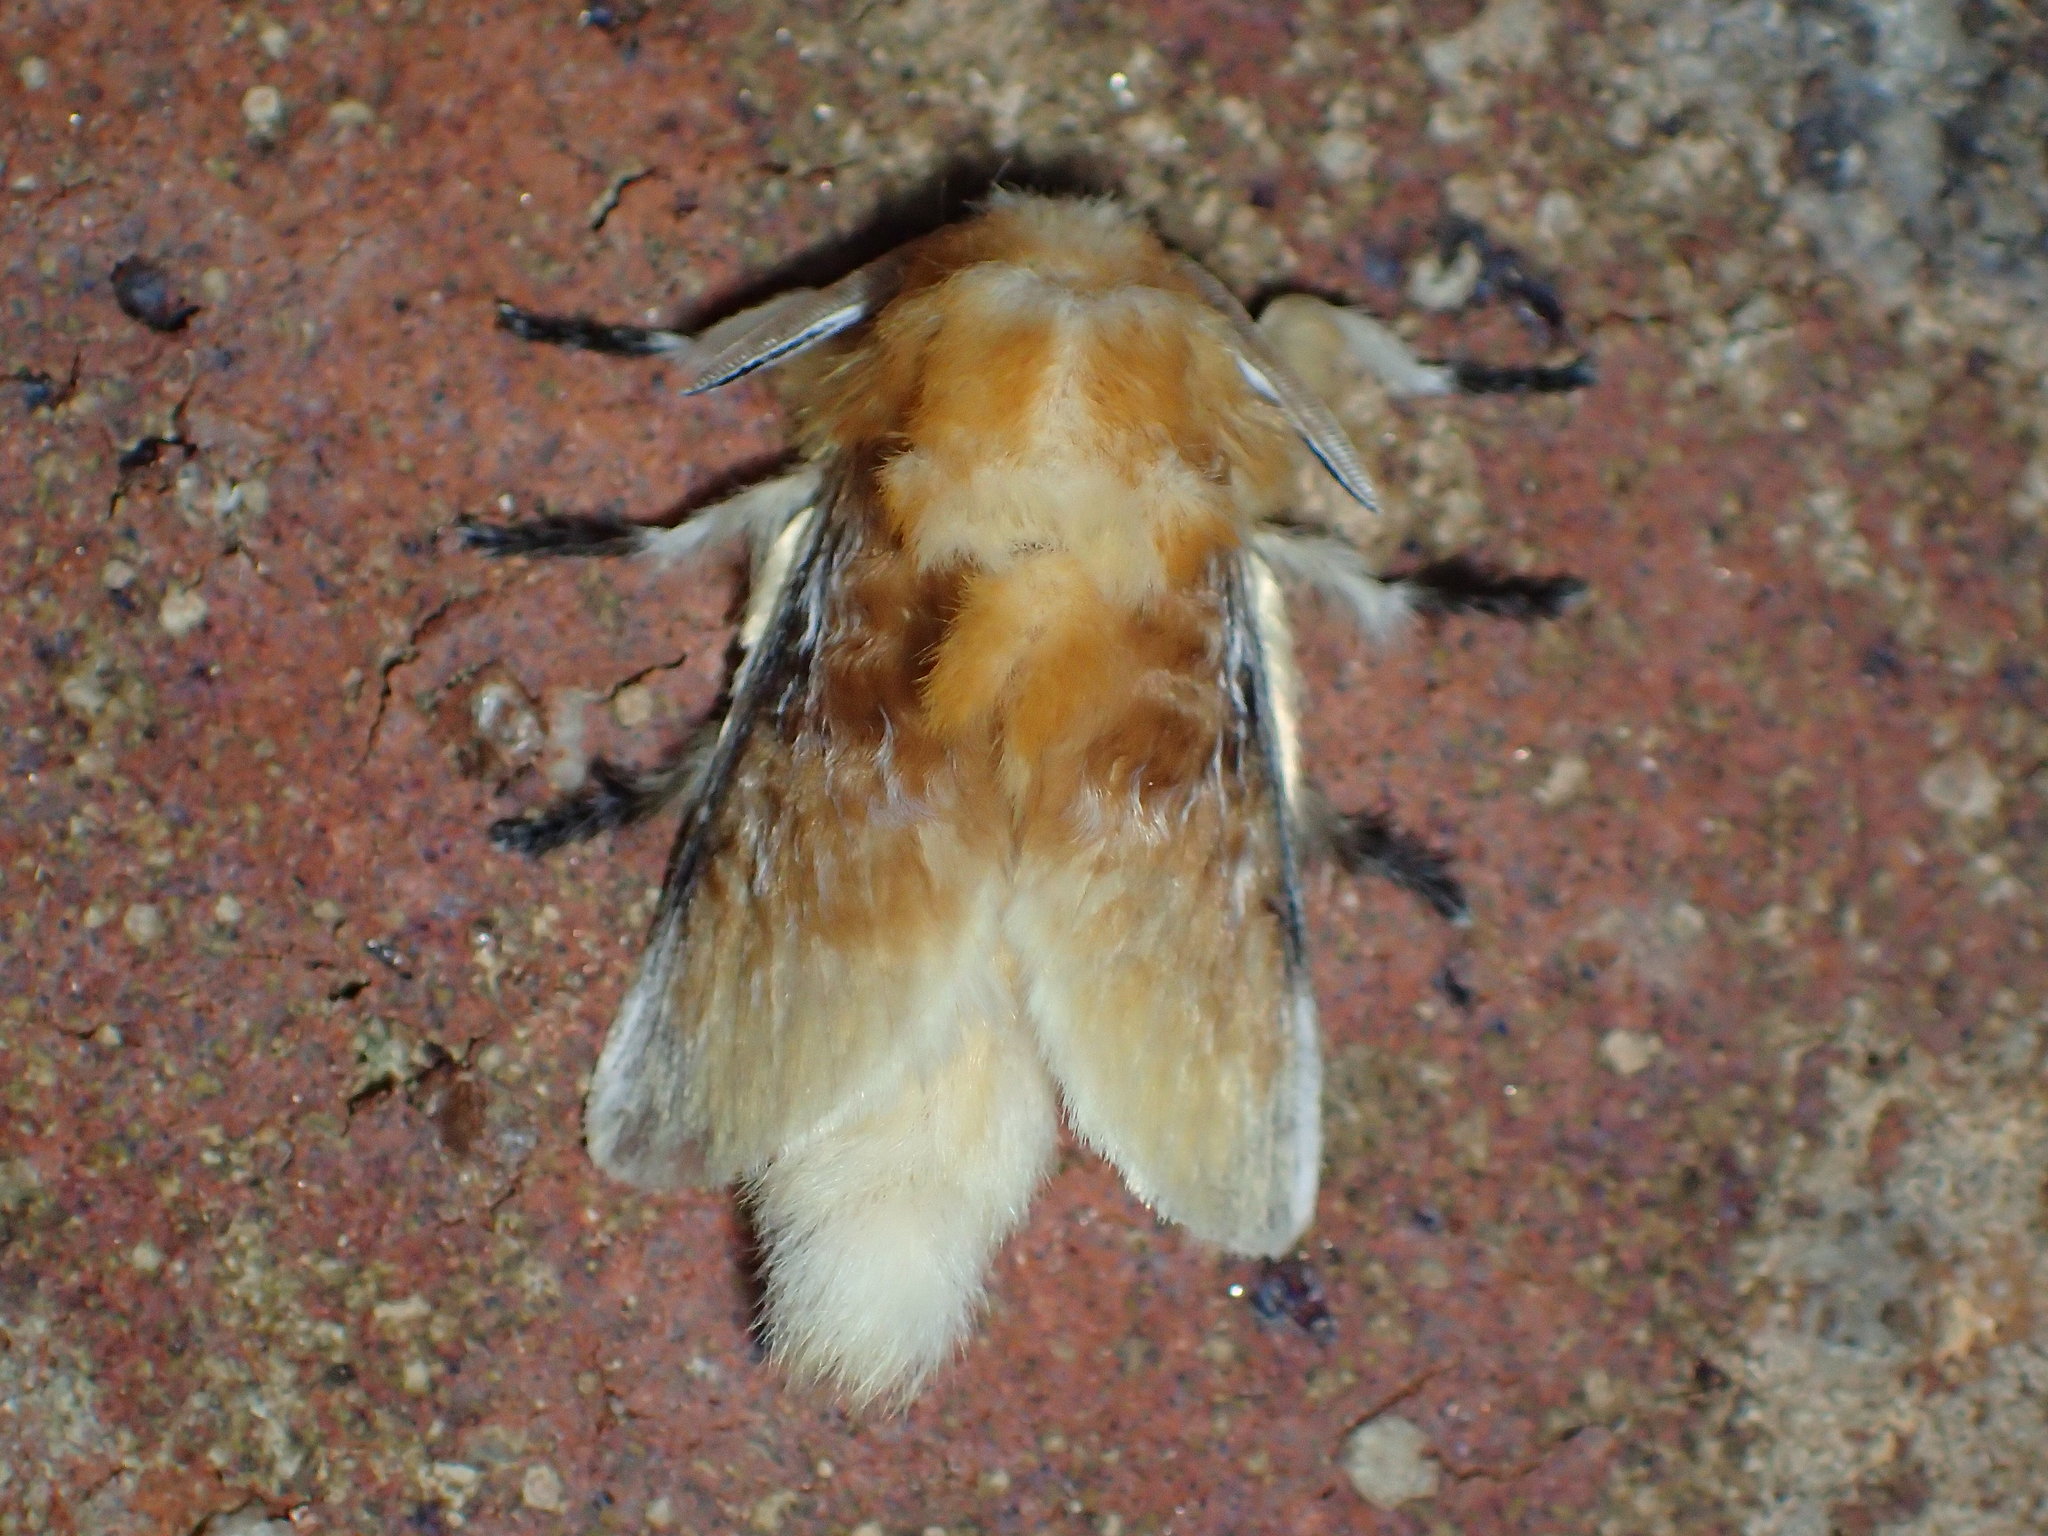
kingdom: Animalia
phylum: Arthropoda
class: Insecta
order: Lepidoptera
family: Megalopygidae
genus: Megalopyge
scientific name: Megalopyge opercularis
